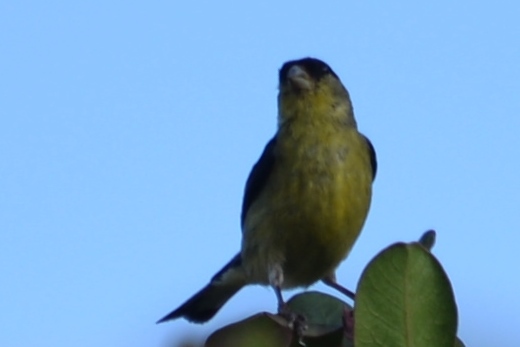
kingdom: Animalia
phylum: Chordata
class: Aves
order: Passeriformes
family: Fringillidae
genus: Spinus
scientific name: Spinus psaltria
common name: Lesser goldfinch
